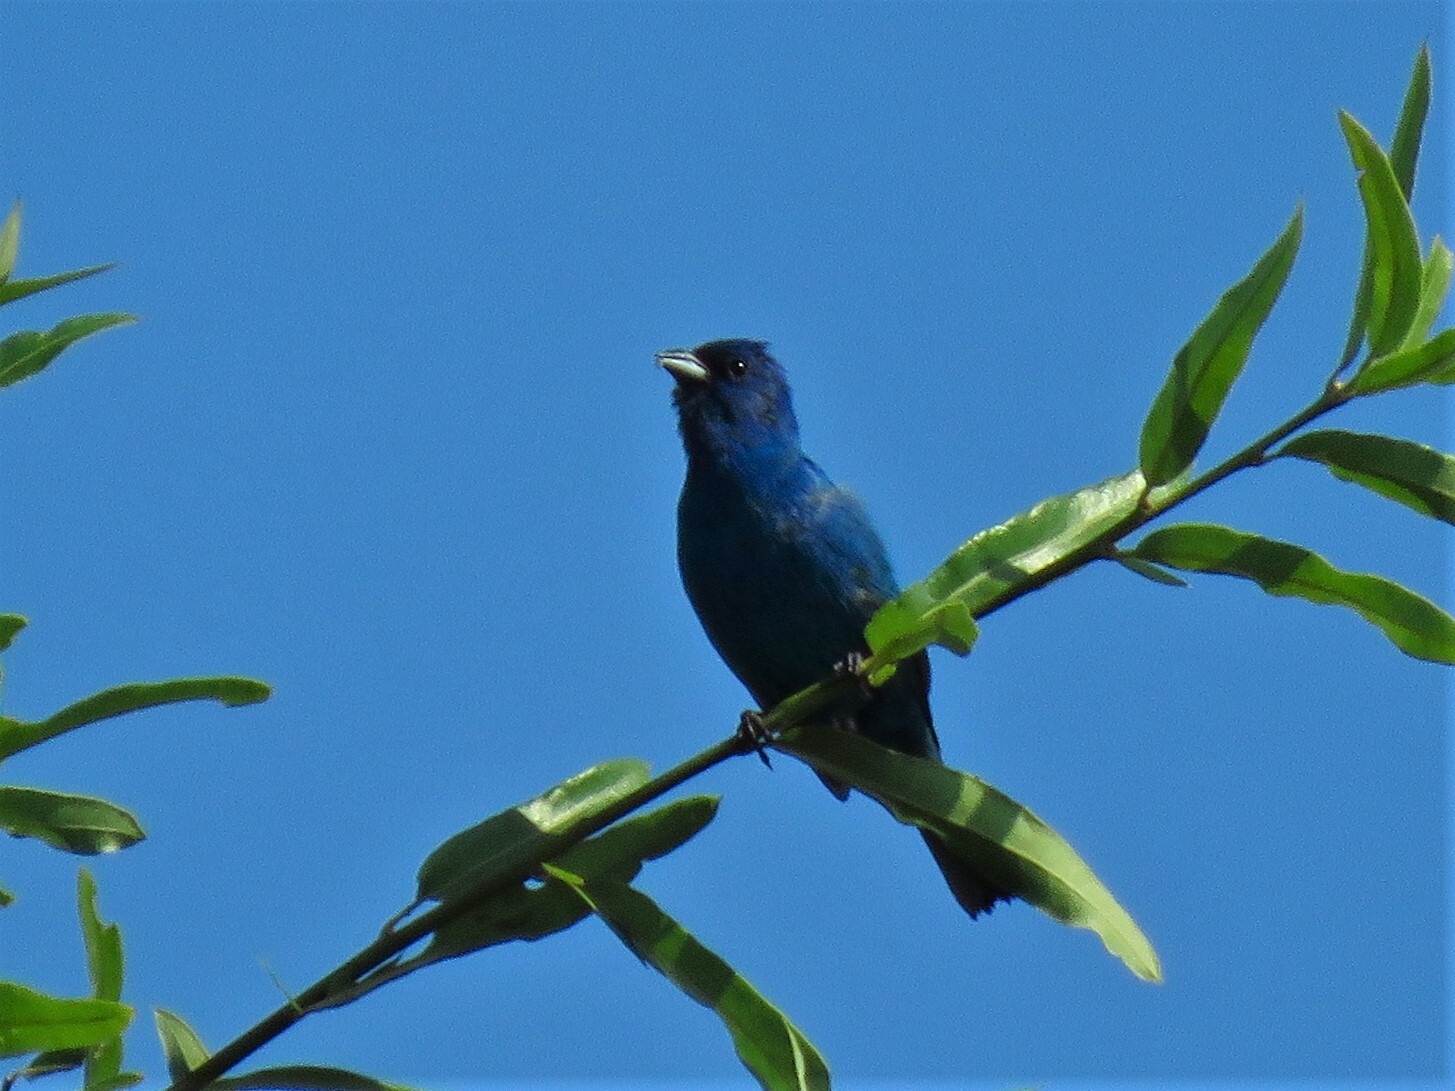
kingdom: Animalia
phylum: Chordata
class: Aves
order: Passeriformes
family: Cardinalidae
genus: Passerina
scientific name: Passerina cyanea
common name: Indigo bunting
